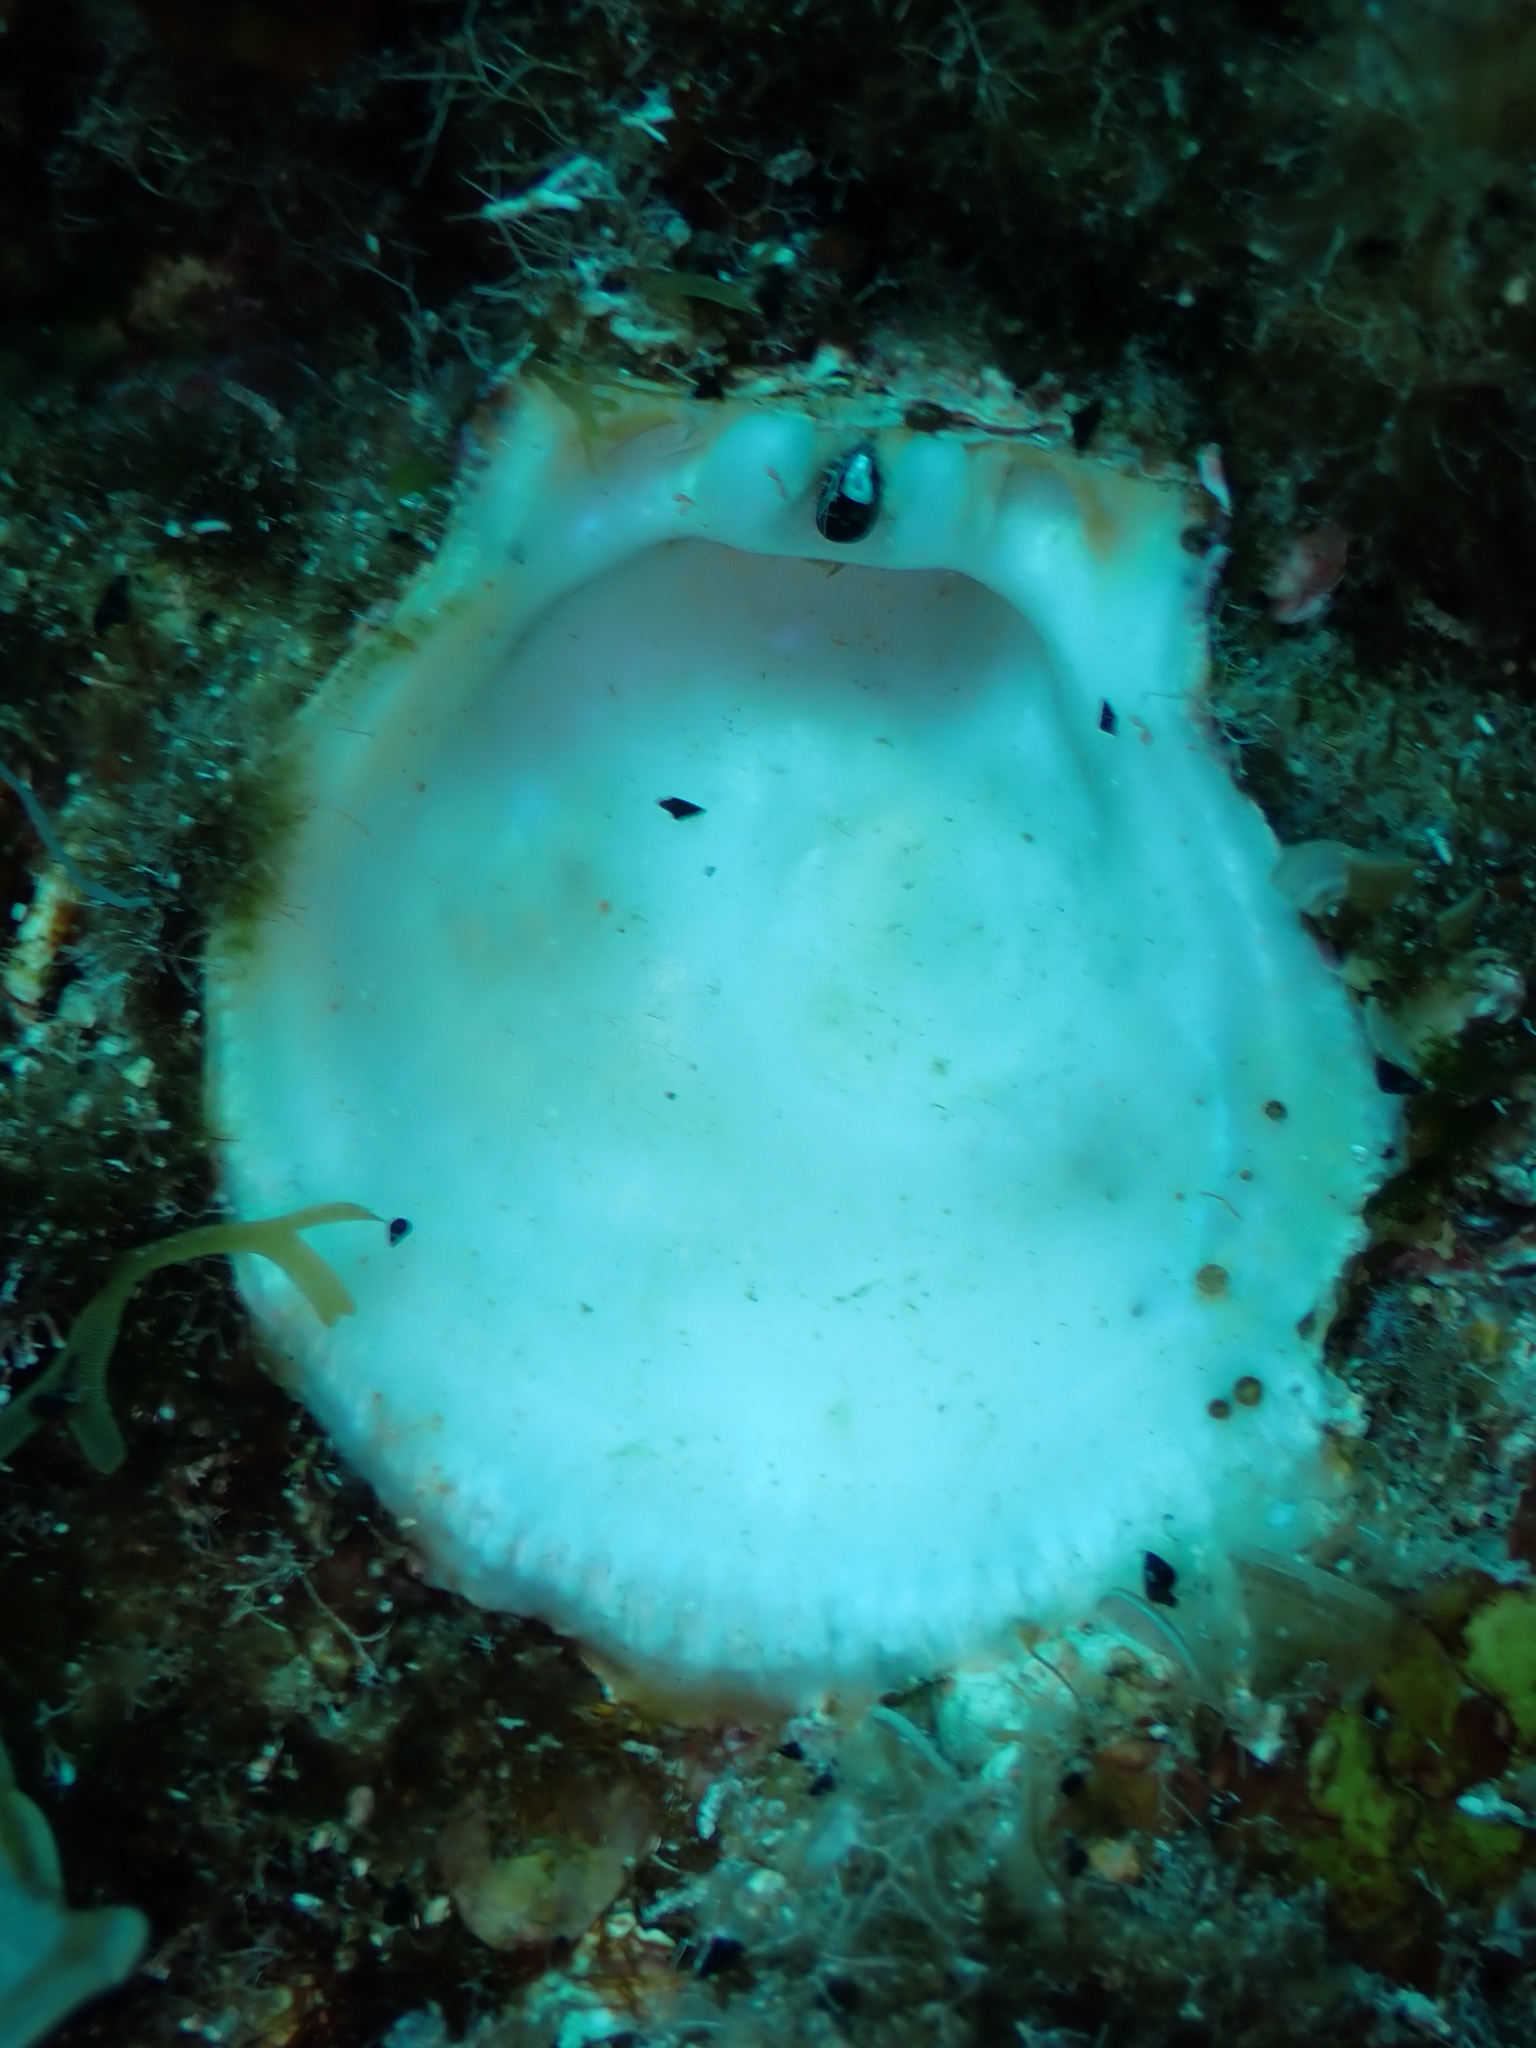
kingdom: Animalia
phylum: Mollusca
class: Bivalvia
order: Pectinida
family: Spondylidae
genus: Spondylus
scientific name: Spondylus gaederopus
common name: European thorny oyster
